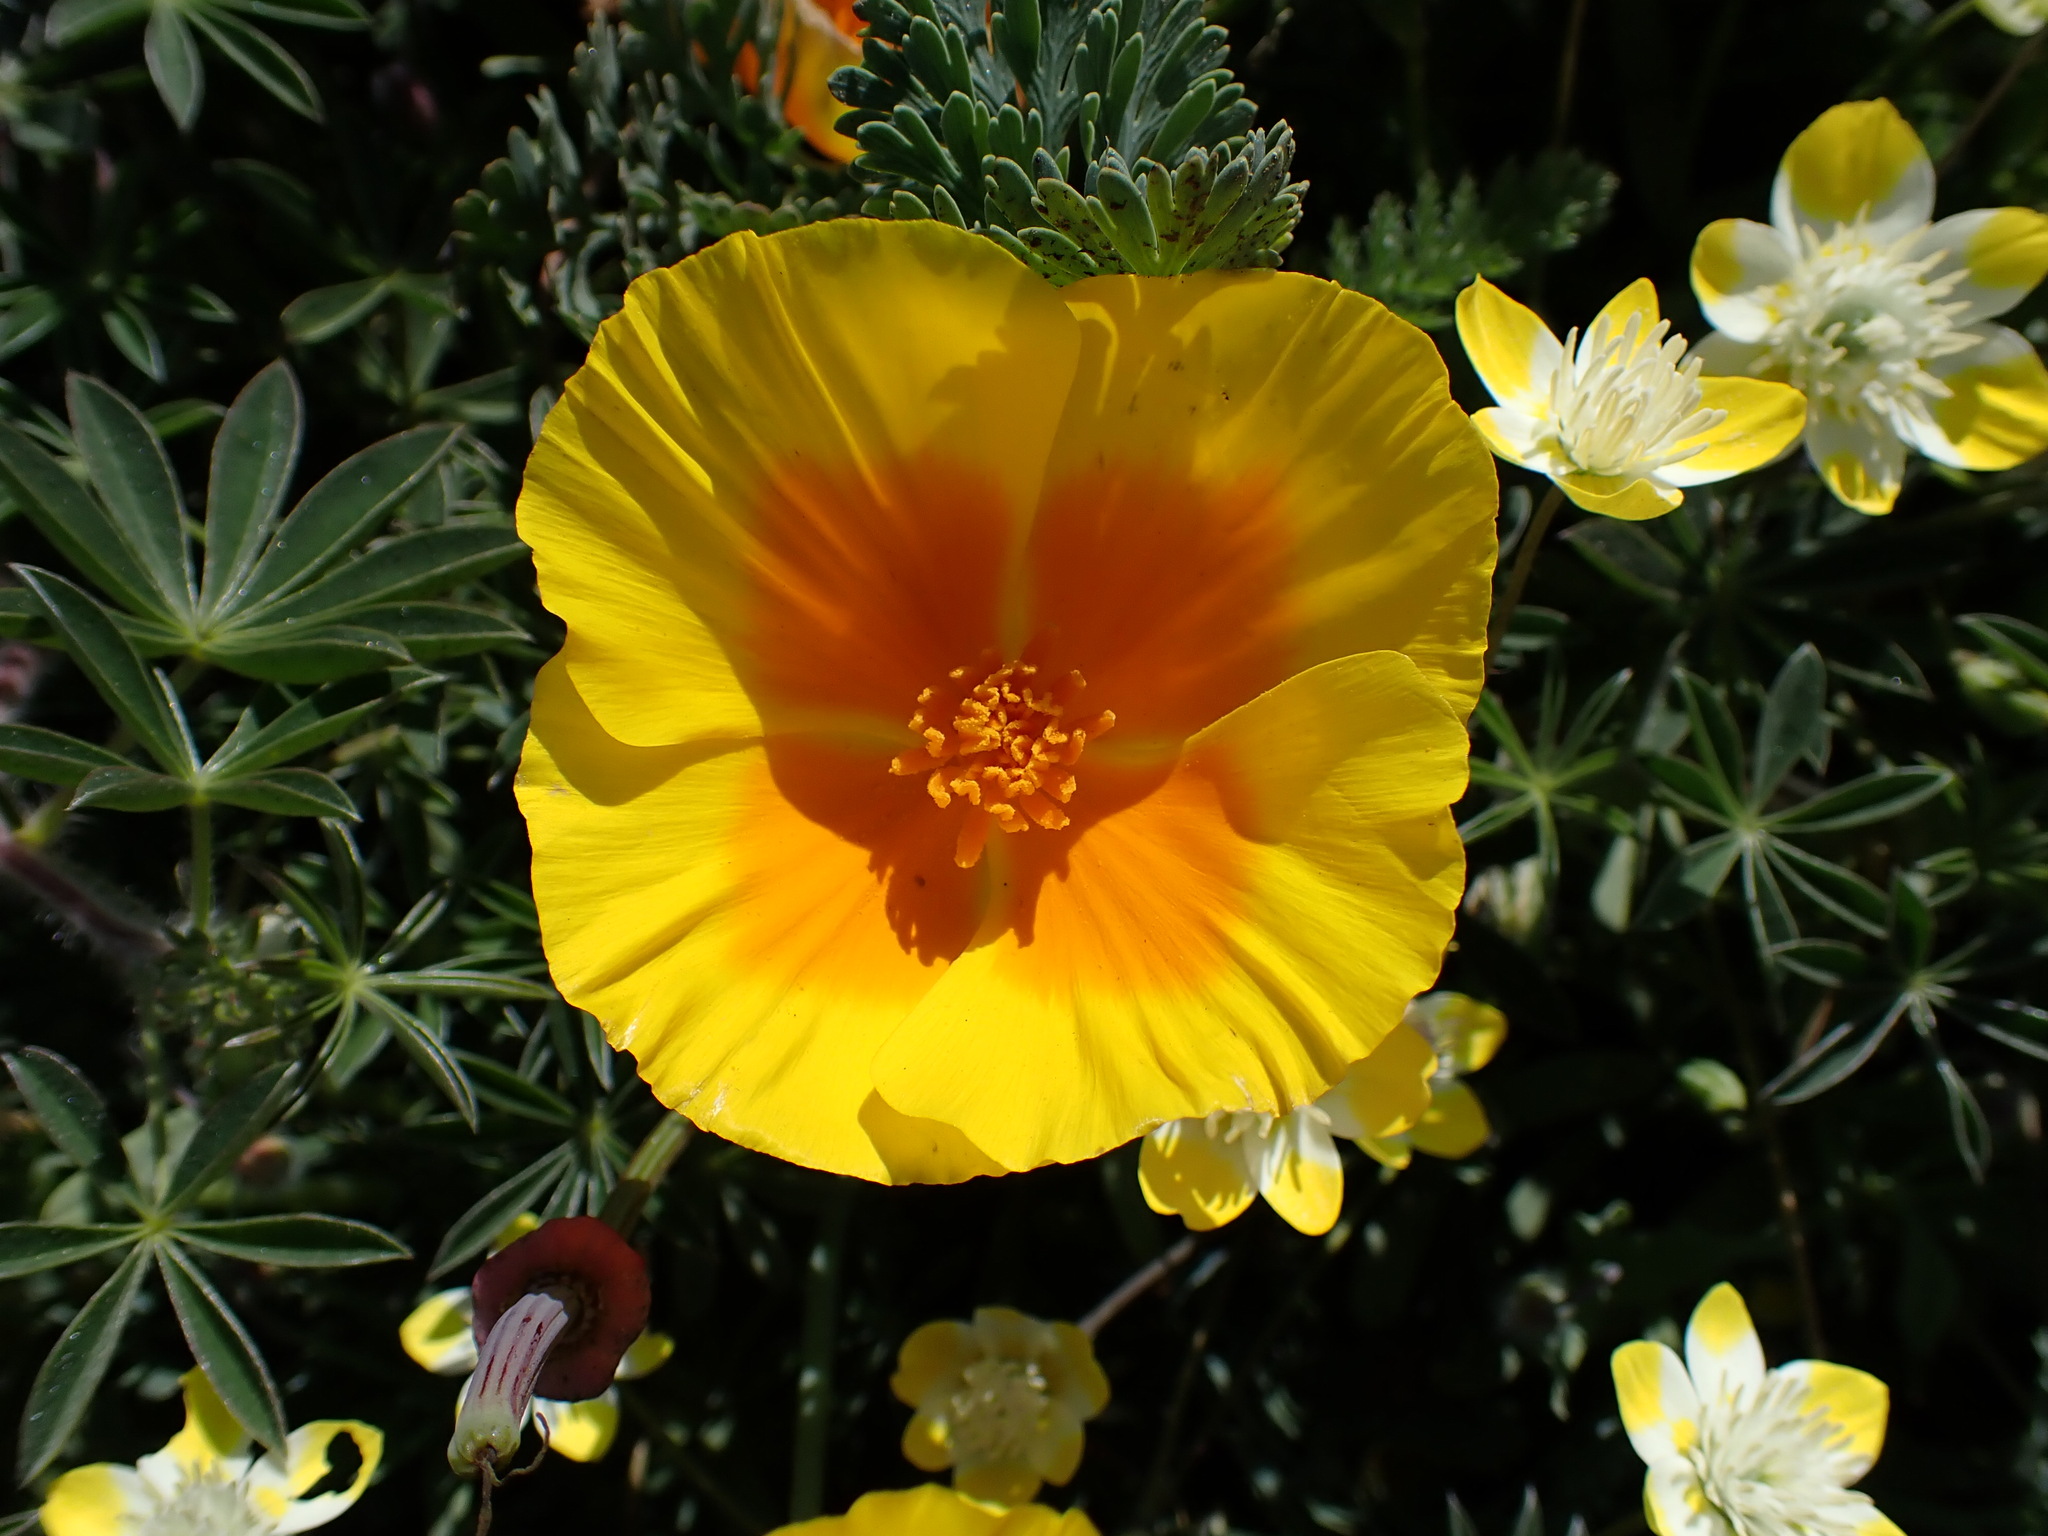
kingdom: Plantae
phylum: Tracheophyta
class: Magnoliopsida
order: Ranunculales
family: Papaveraceae
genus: Eschscholzia
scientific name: Eschscholzia californica
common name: California poppy
